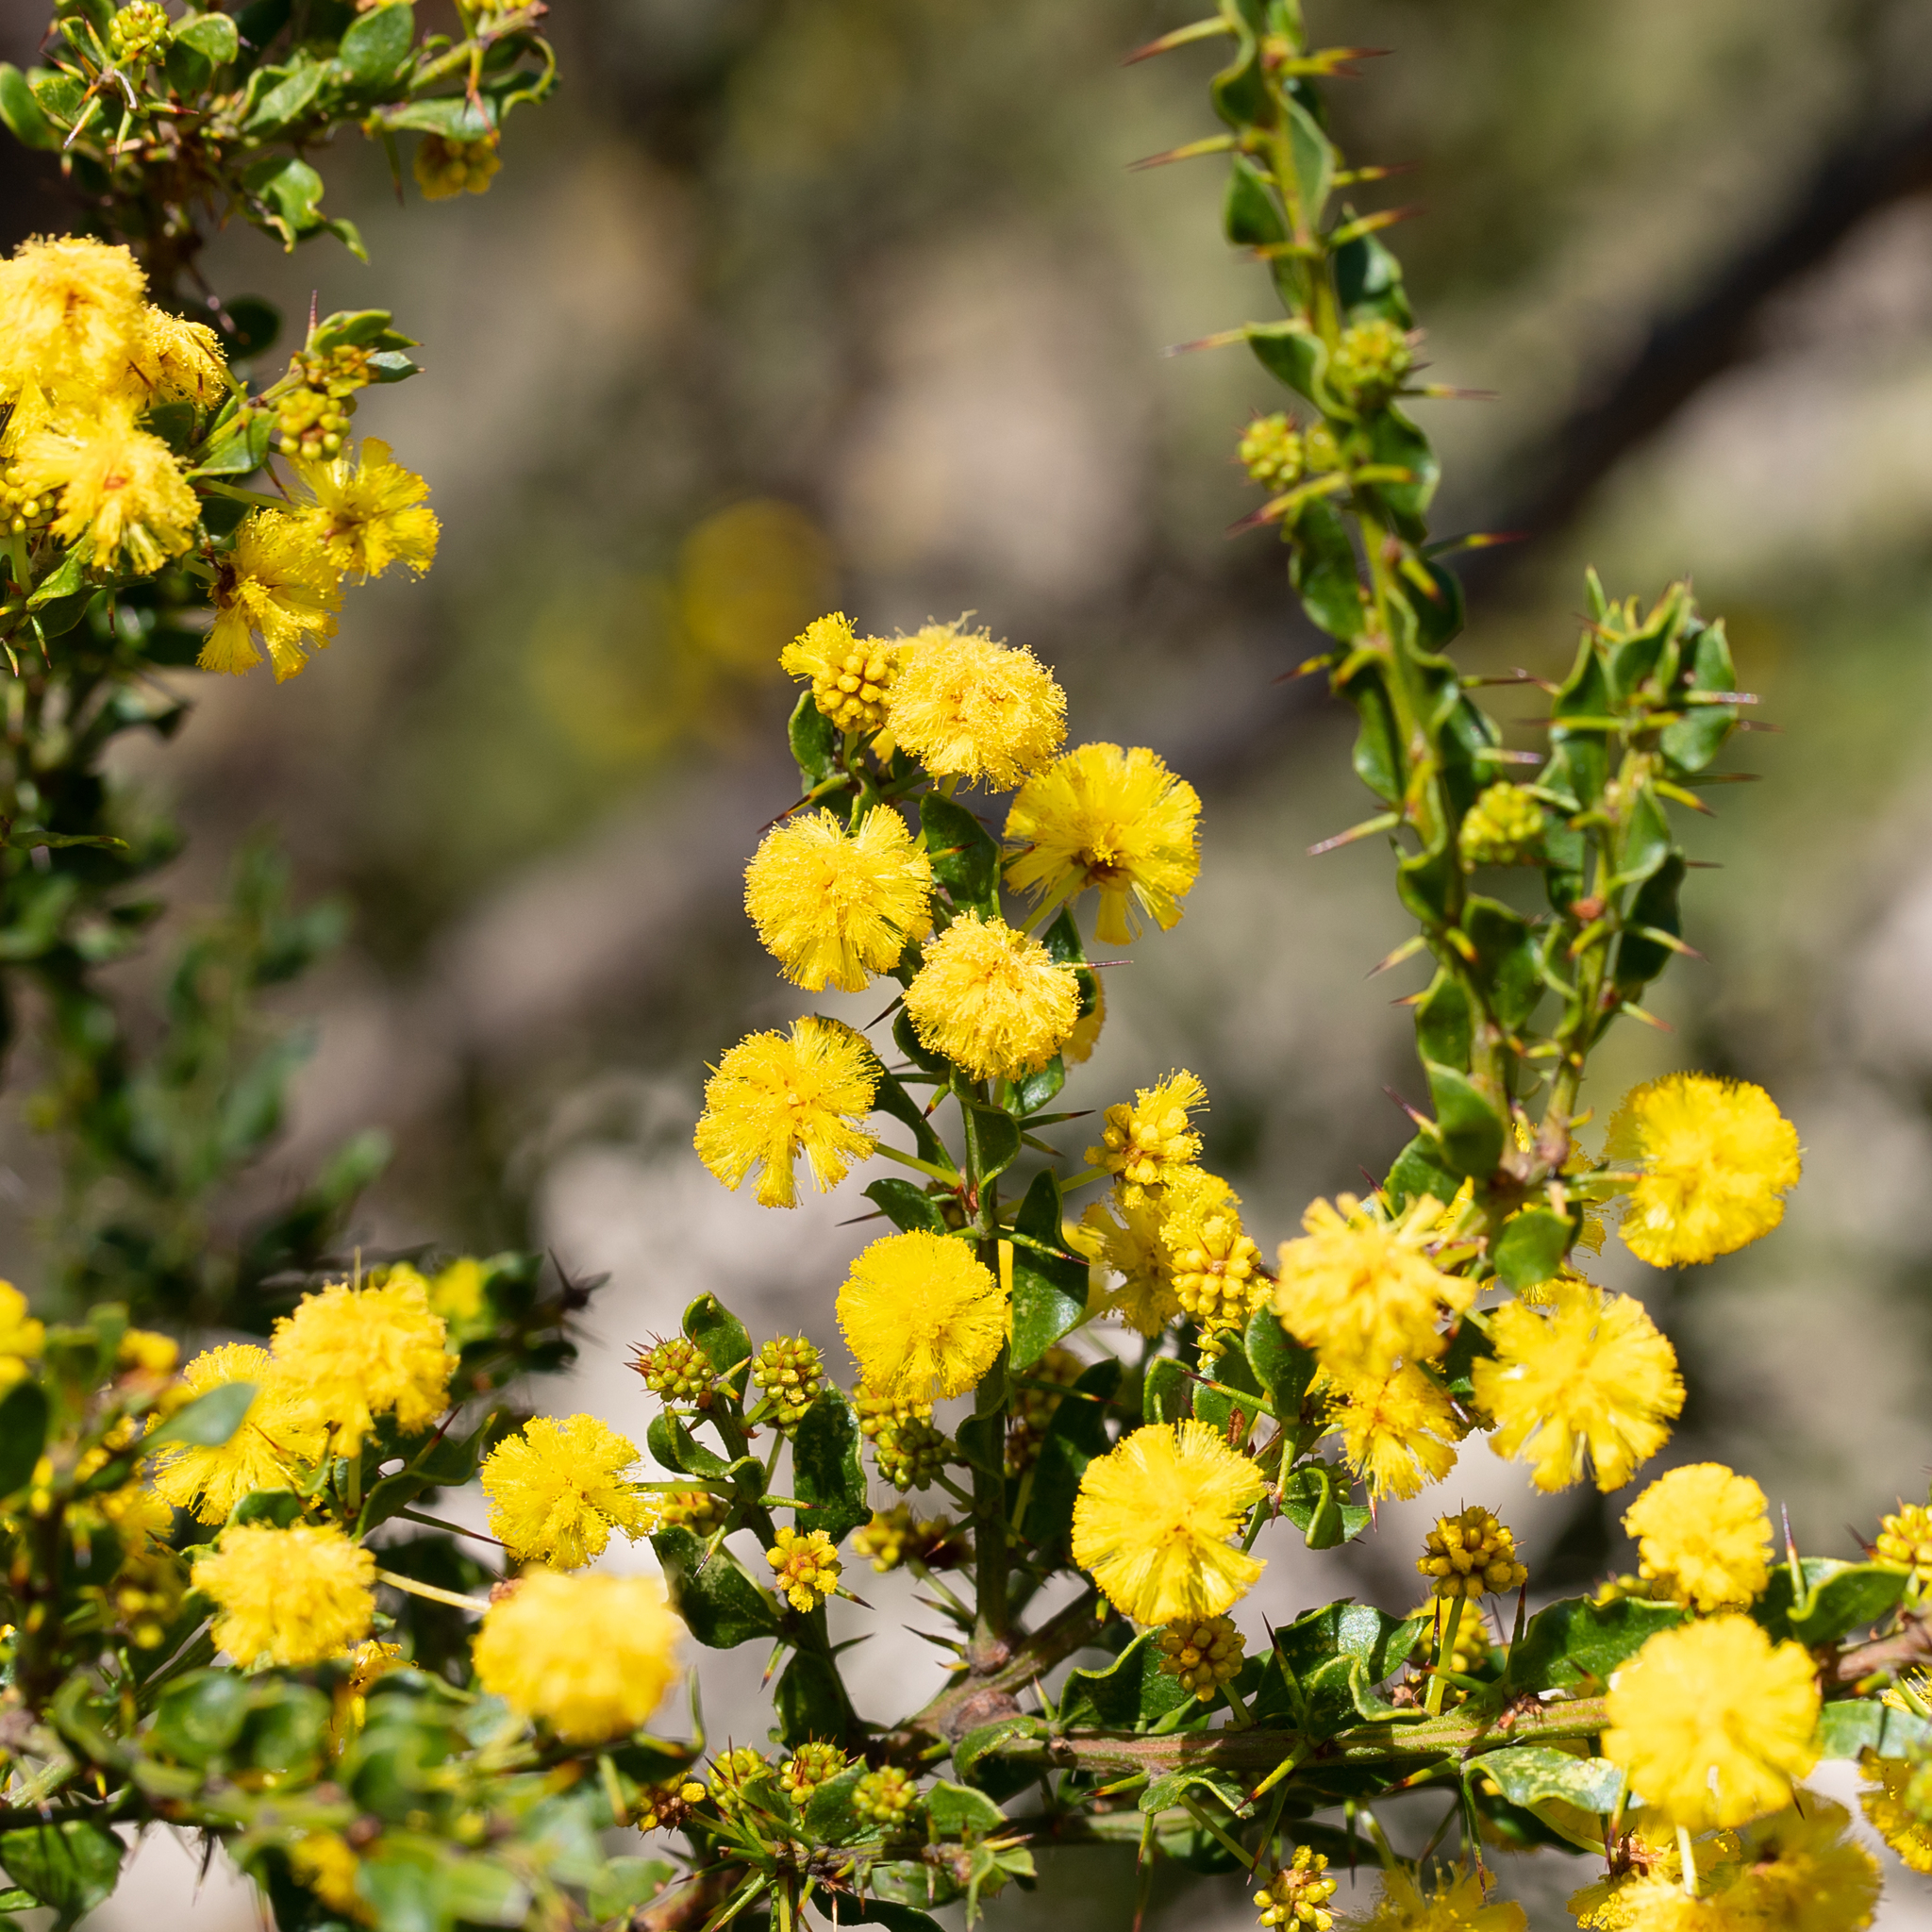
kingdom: Plantae
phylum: Tracheophyta
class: Magnoliopsida
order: Fabales
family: Fabaceae
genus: Acacia
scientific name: Acacia paradoxa
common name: Paradox acacia
